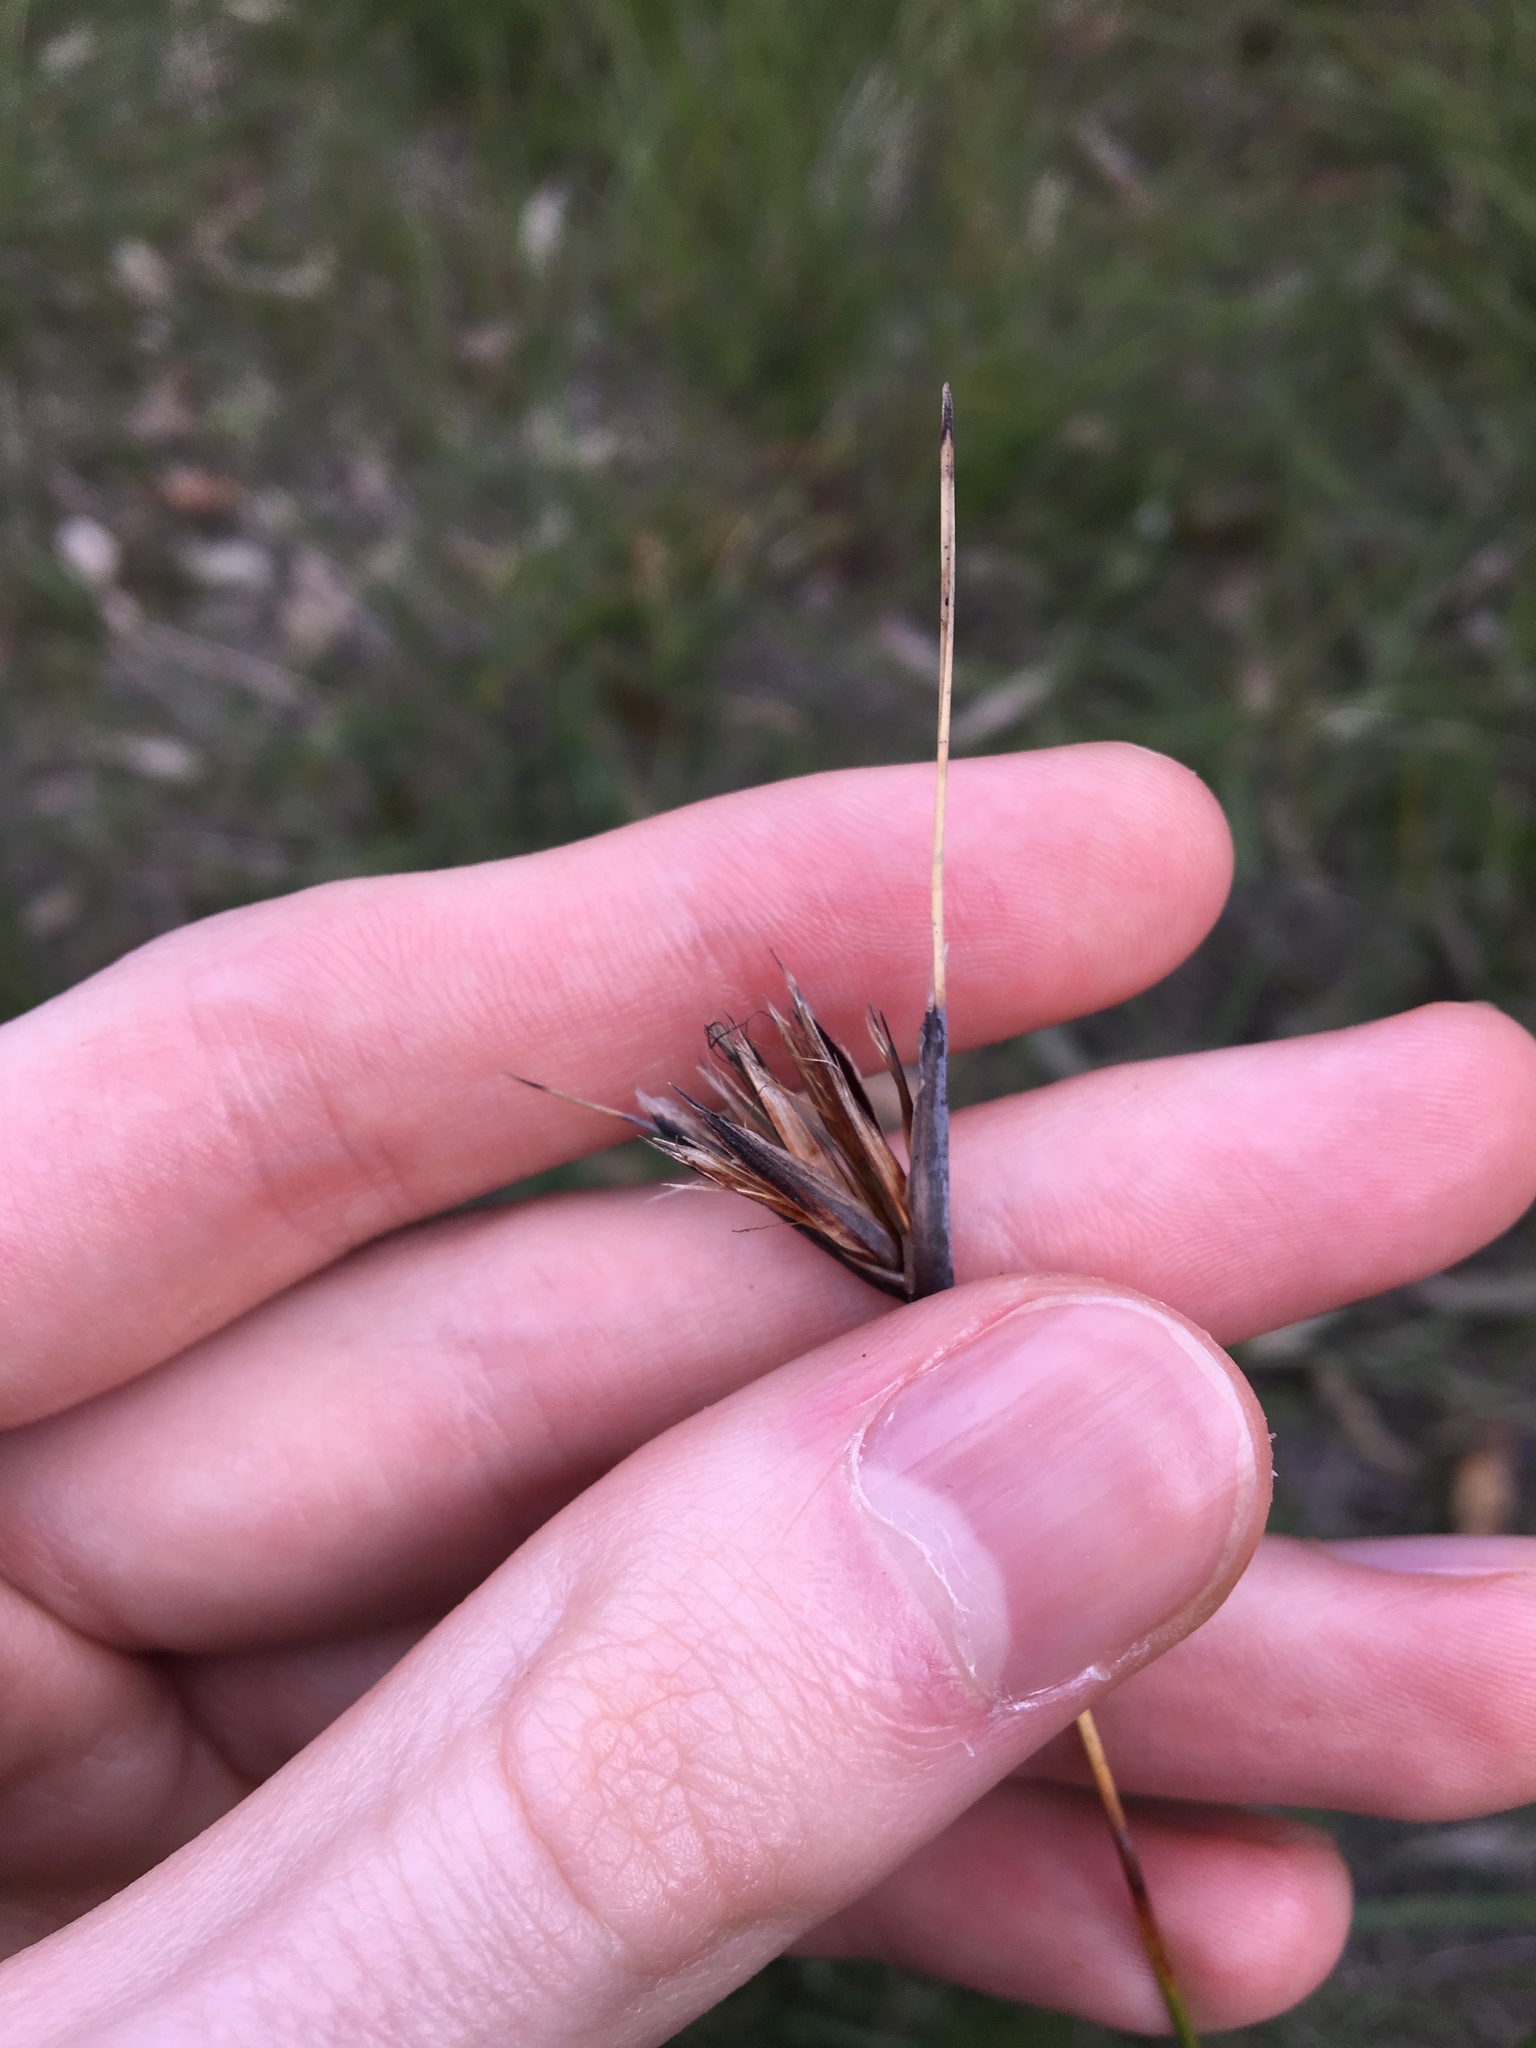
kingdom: Plantae
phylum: Tracheophyta
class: Liliopsida
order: Poales
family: Cyperaceae
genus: Ptilothrix
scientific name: Ptilothrix deusta
